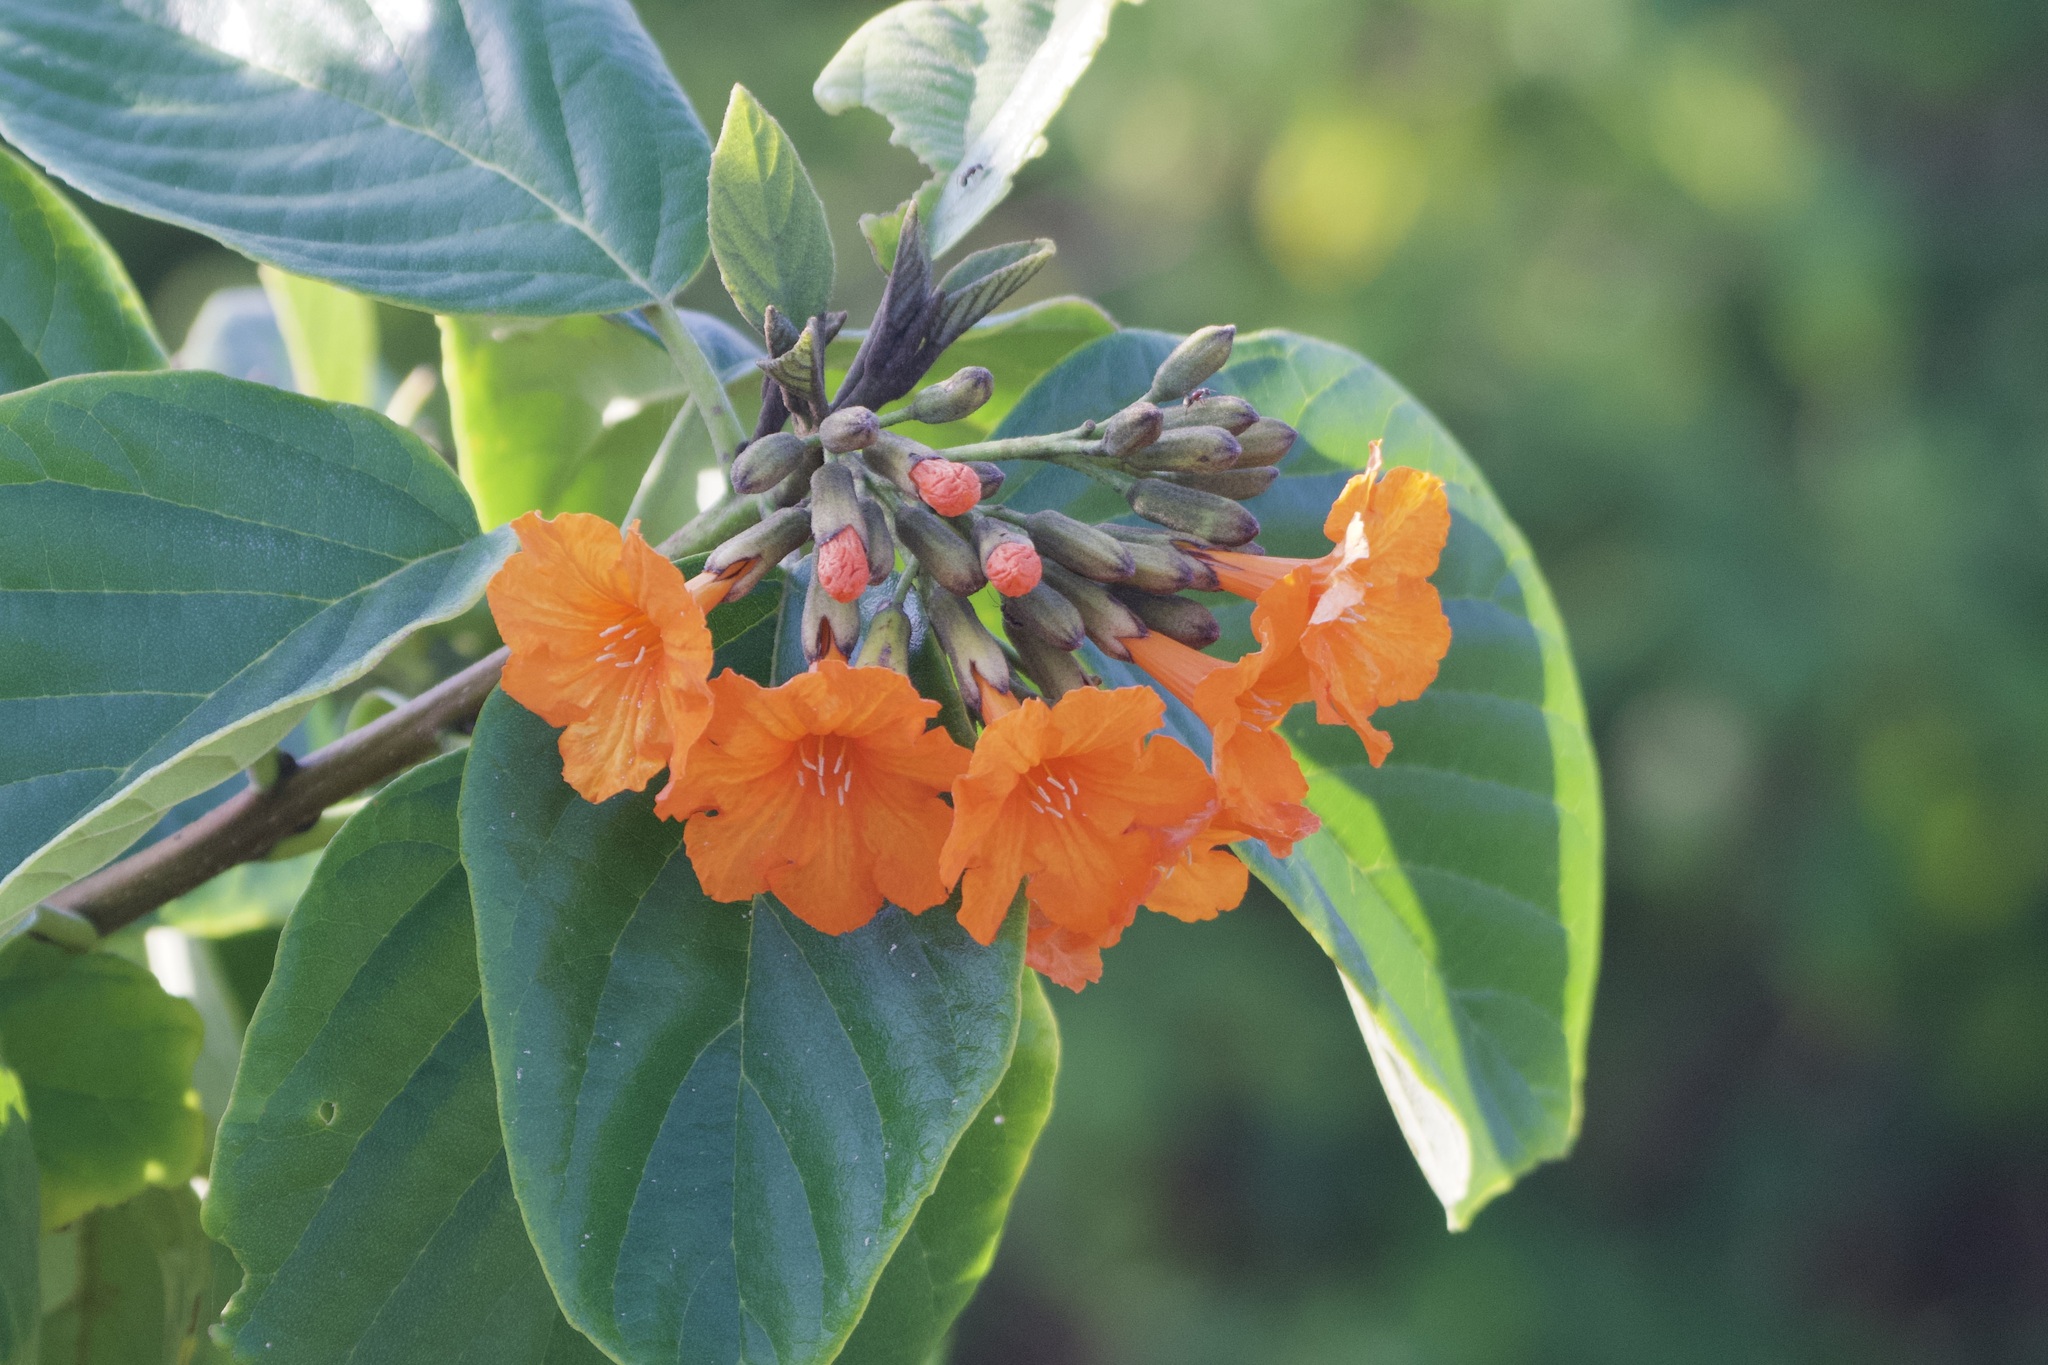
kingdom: Plantae
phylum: Tracheophyta
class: Magnoliopsida
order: Boraginales
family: Cordiaceae
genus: Cordia
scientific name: Cordia sebestena
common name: Largeleaf geigertree
